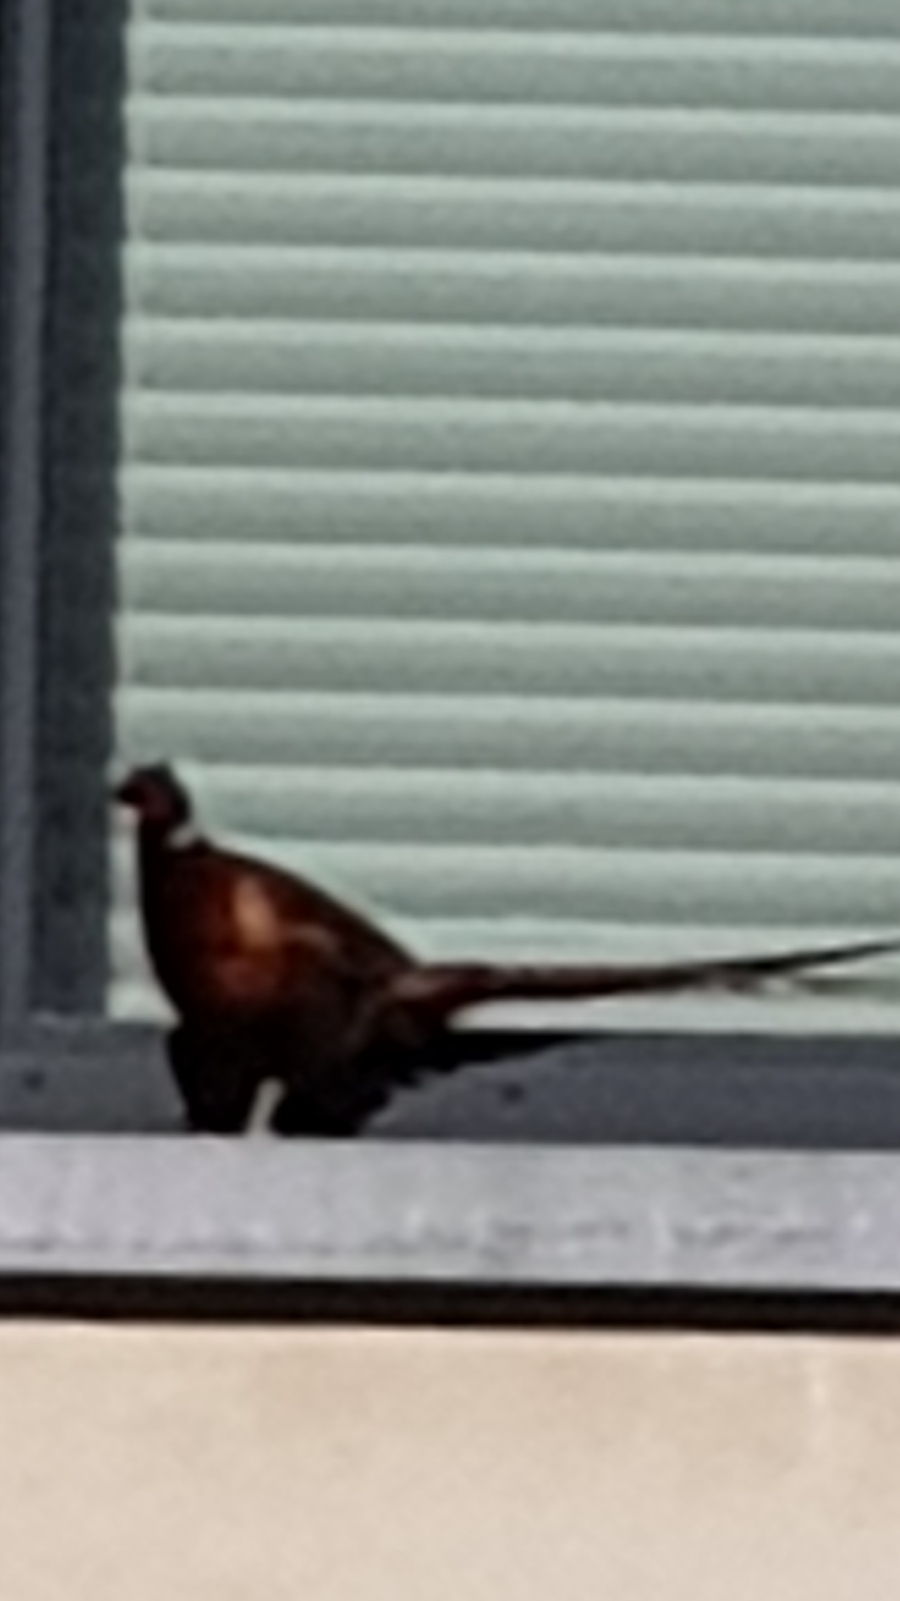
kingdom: Animalia
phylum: Chordata
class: Aves
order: Galliformes
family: Phasianidae
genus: Phasianus
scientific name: Phasianus colchicus
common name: Common pheasant
